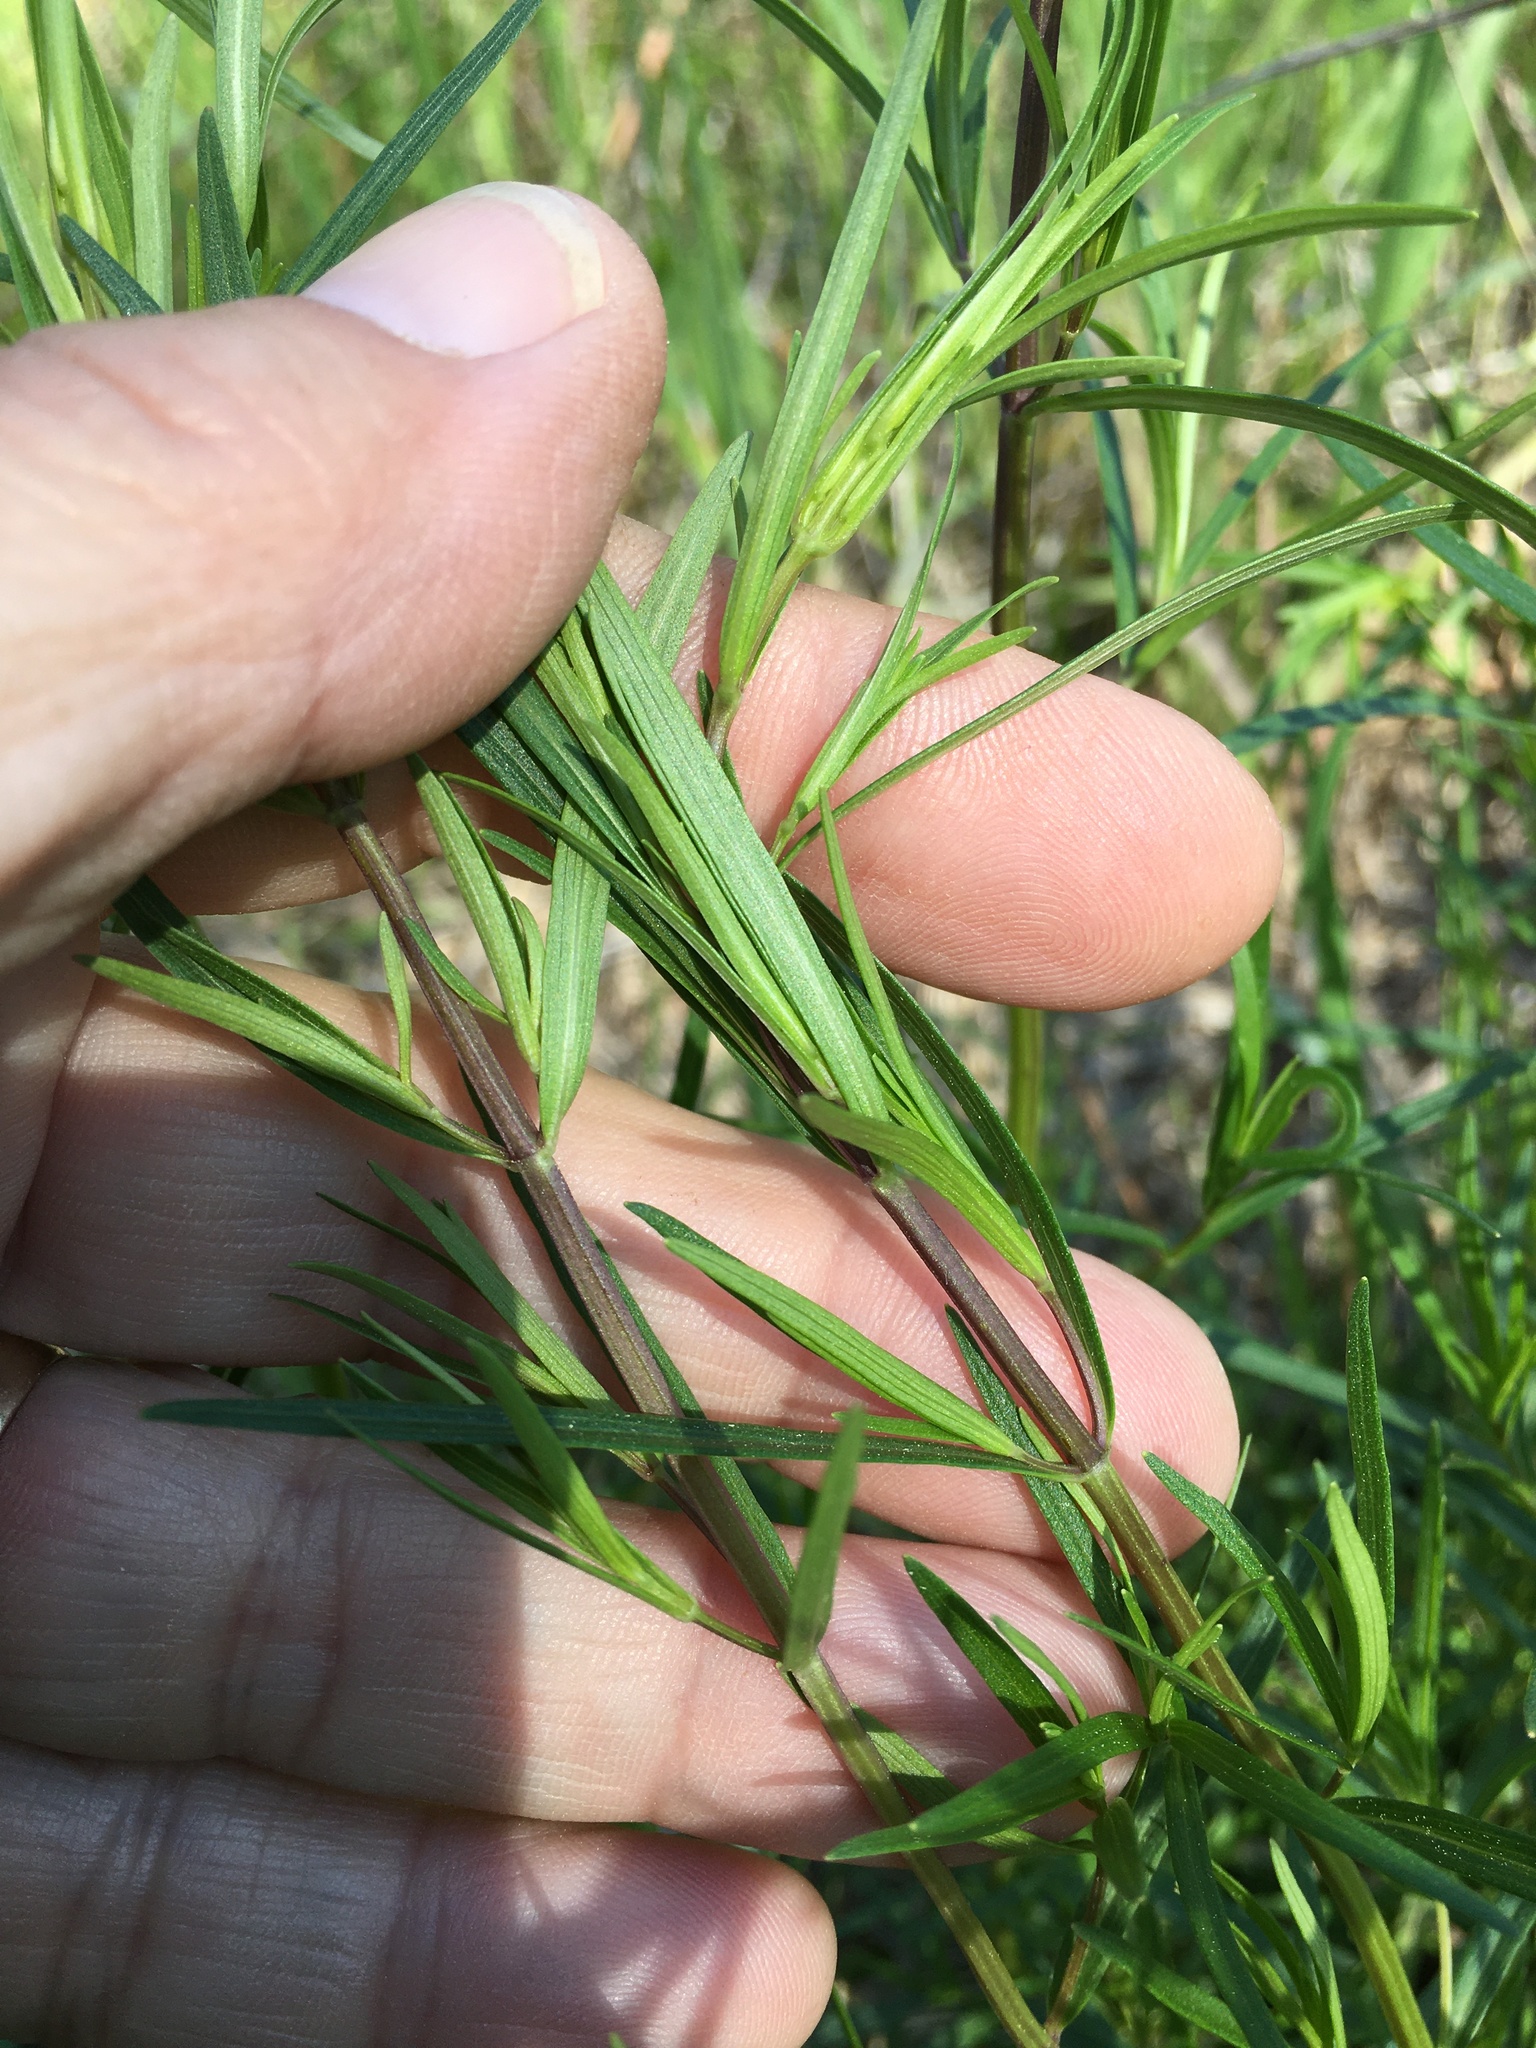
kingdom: Plantae
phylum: Tracheophyta
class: Magnoliopsida
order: Lamiales
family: Lamiaceae
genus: Pycnanthemum
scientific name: Pycnanthemum tenuifolium
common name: Narrow-leaf mountain-mint
